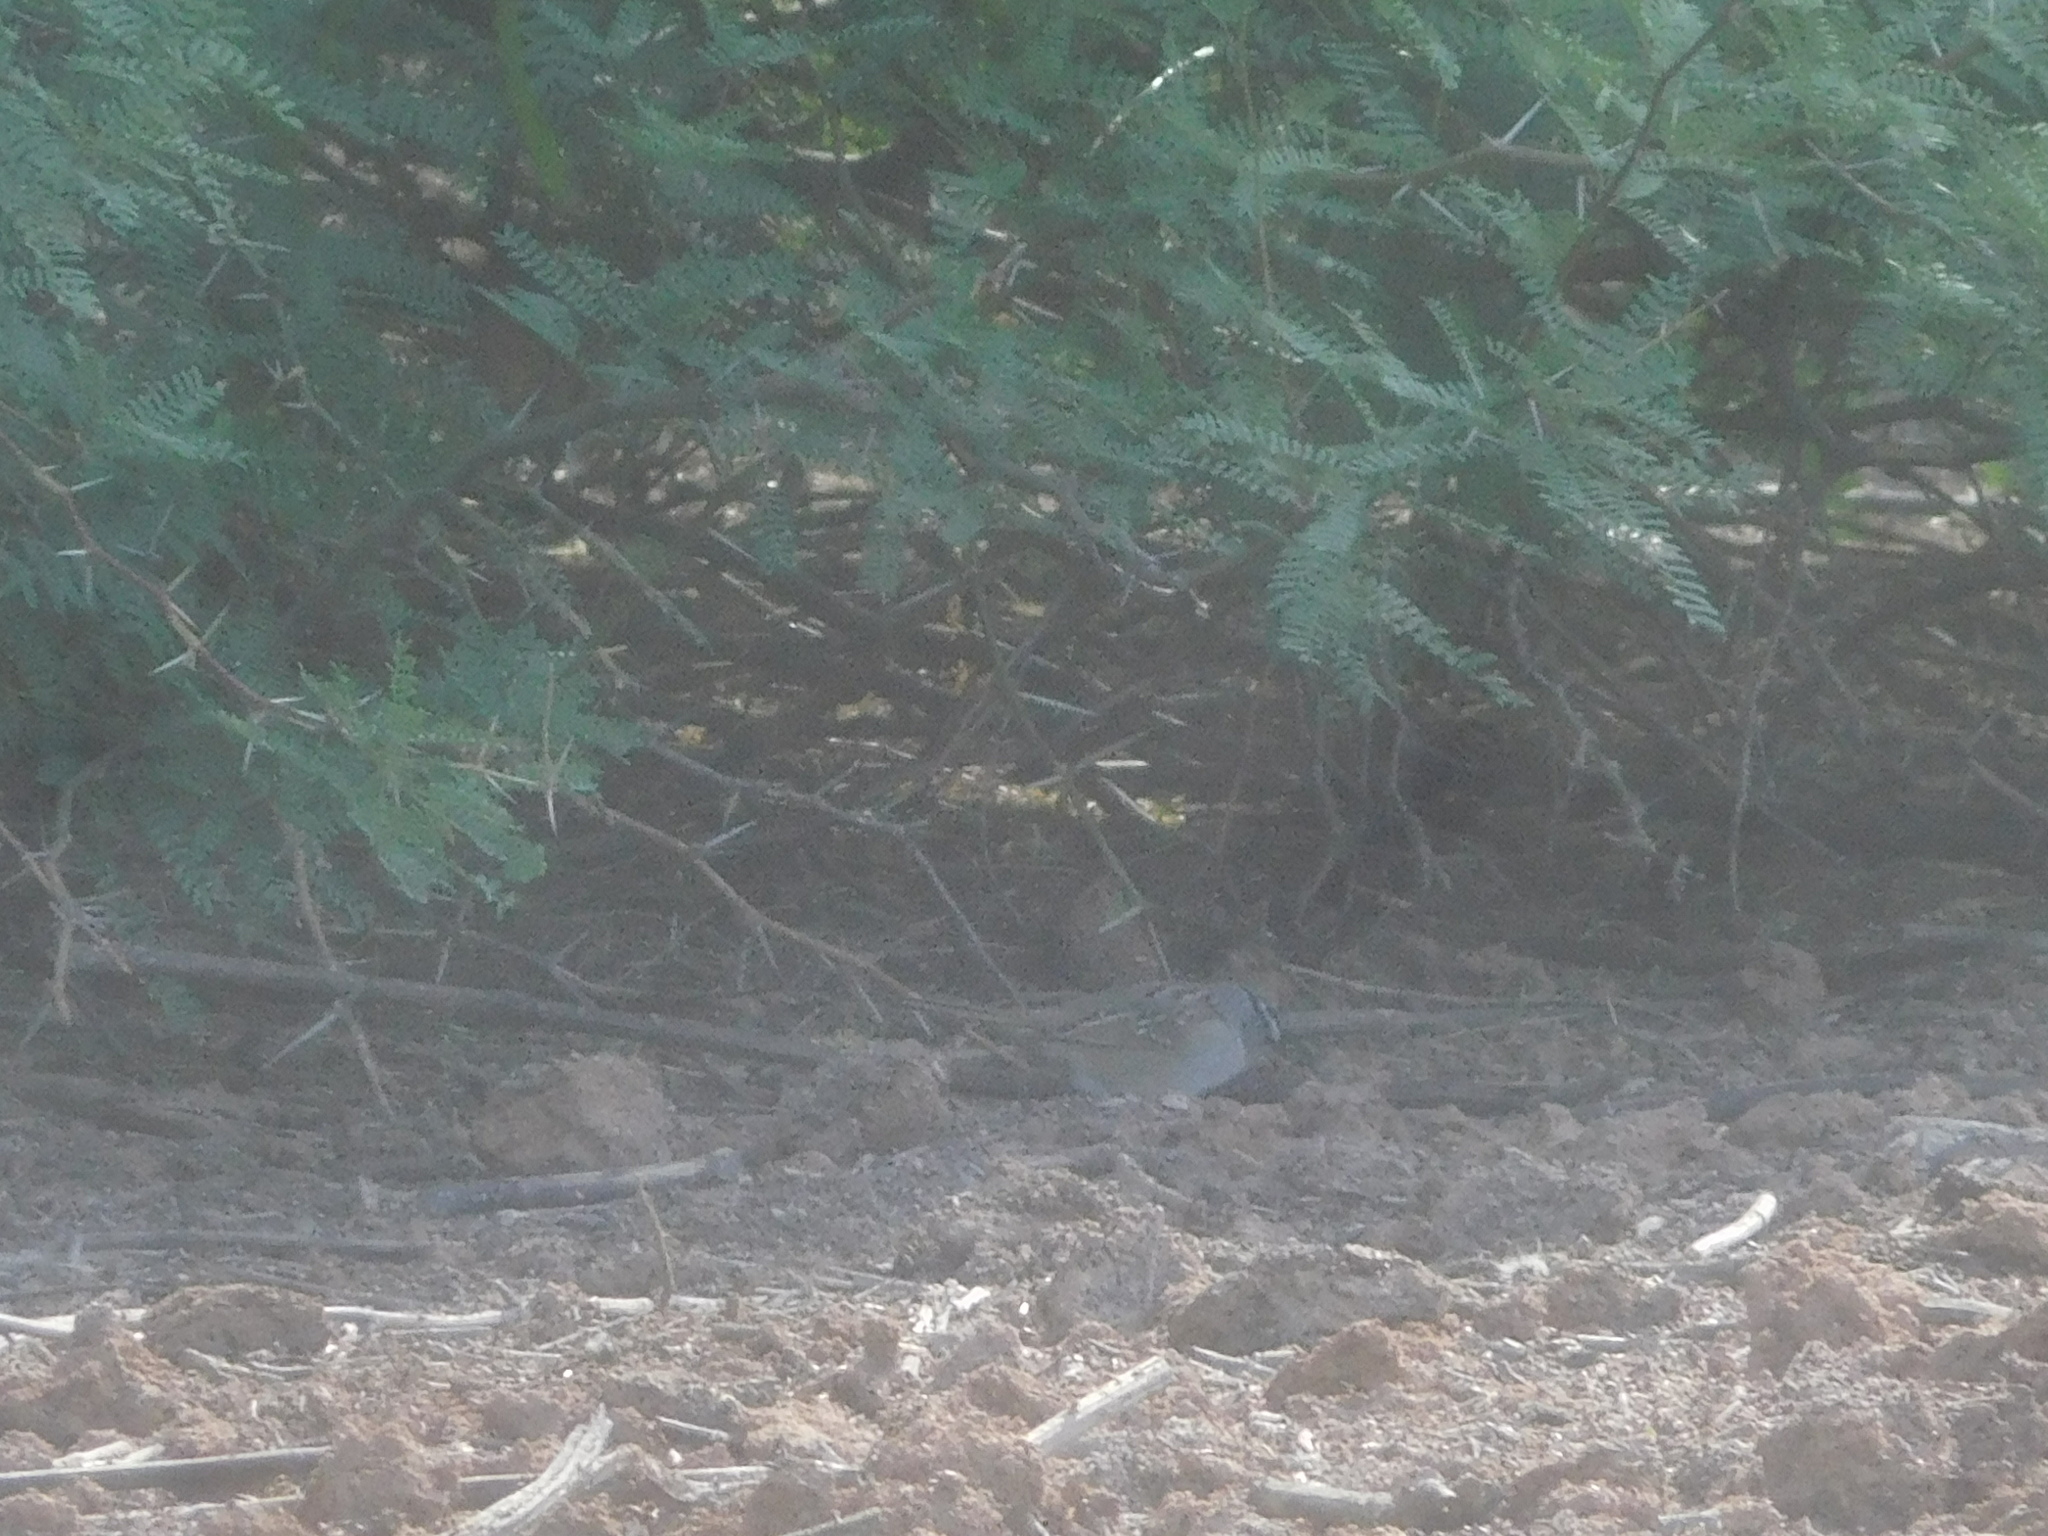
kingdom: Animalia
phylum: Chordata
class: Aves
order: Passeriformes
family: Passerellidae
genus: Zonotrichia
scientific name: Zonotrichia leucophrys
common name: White-crowned sparrow
